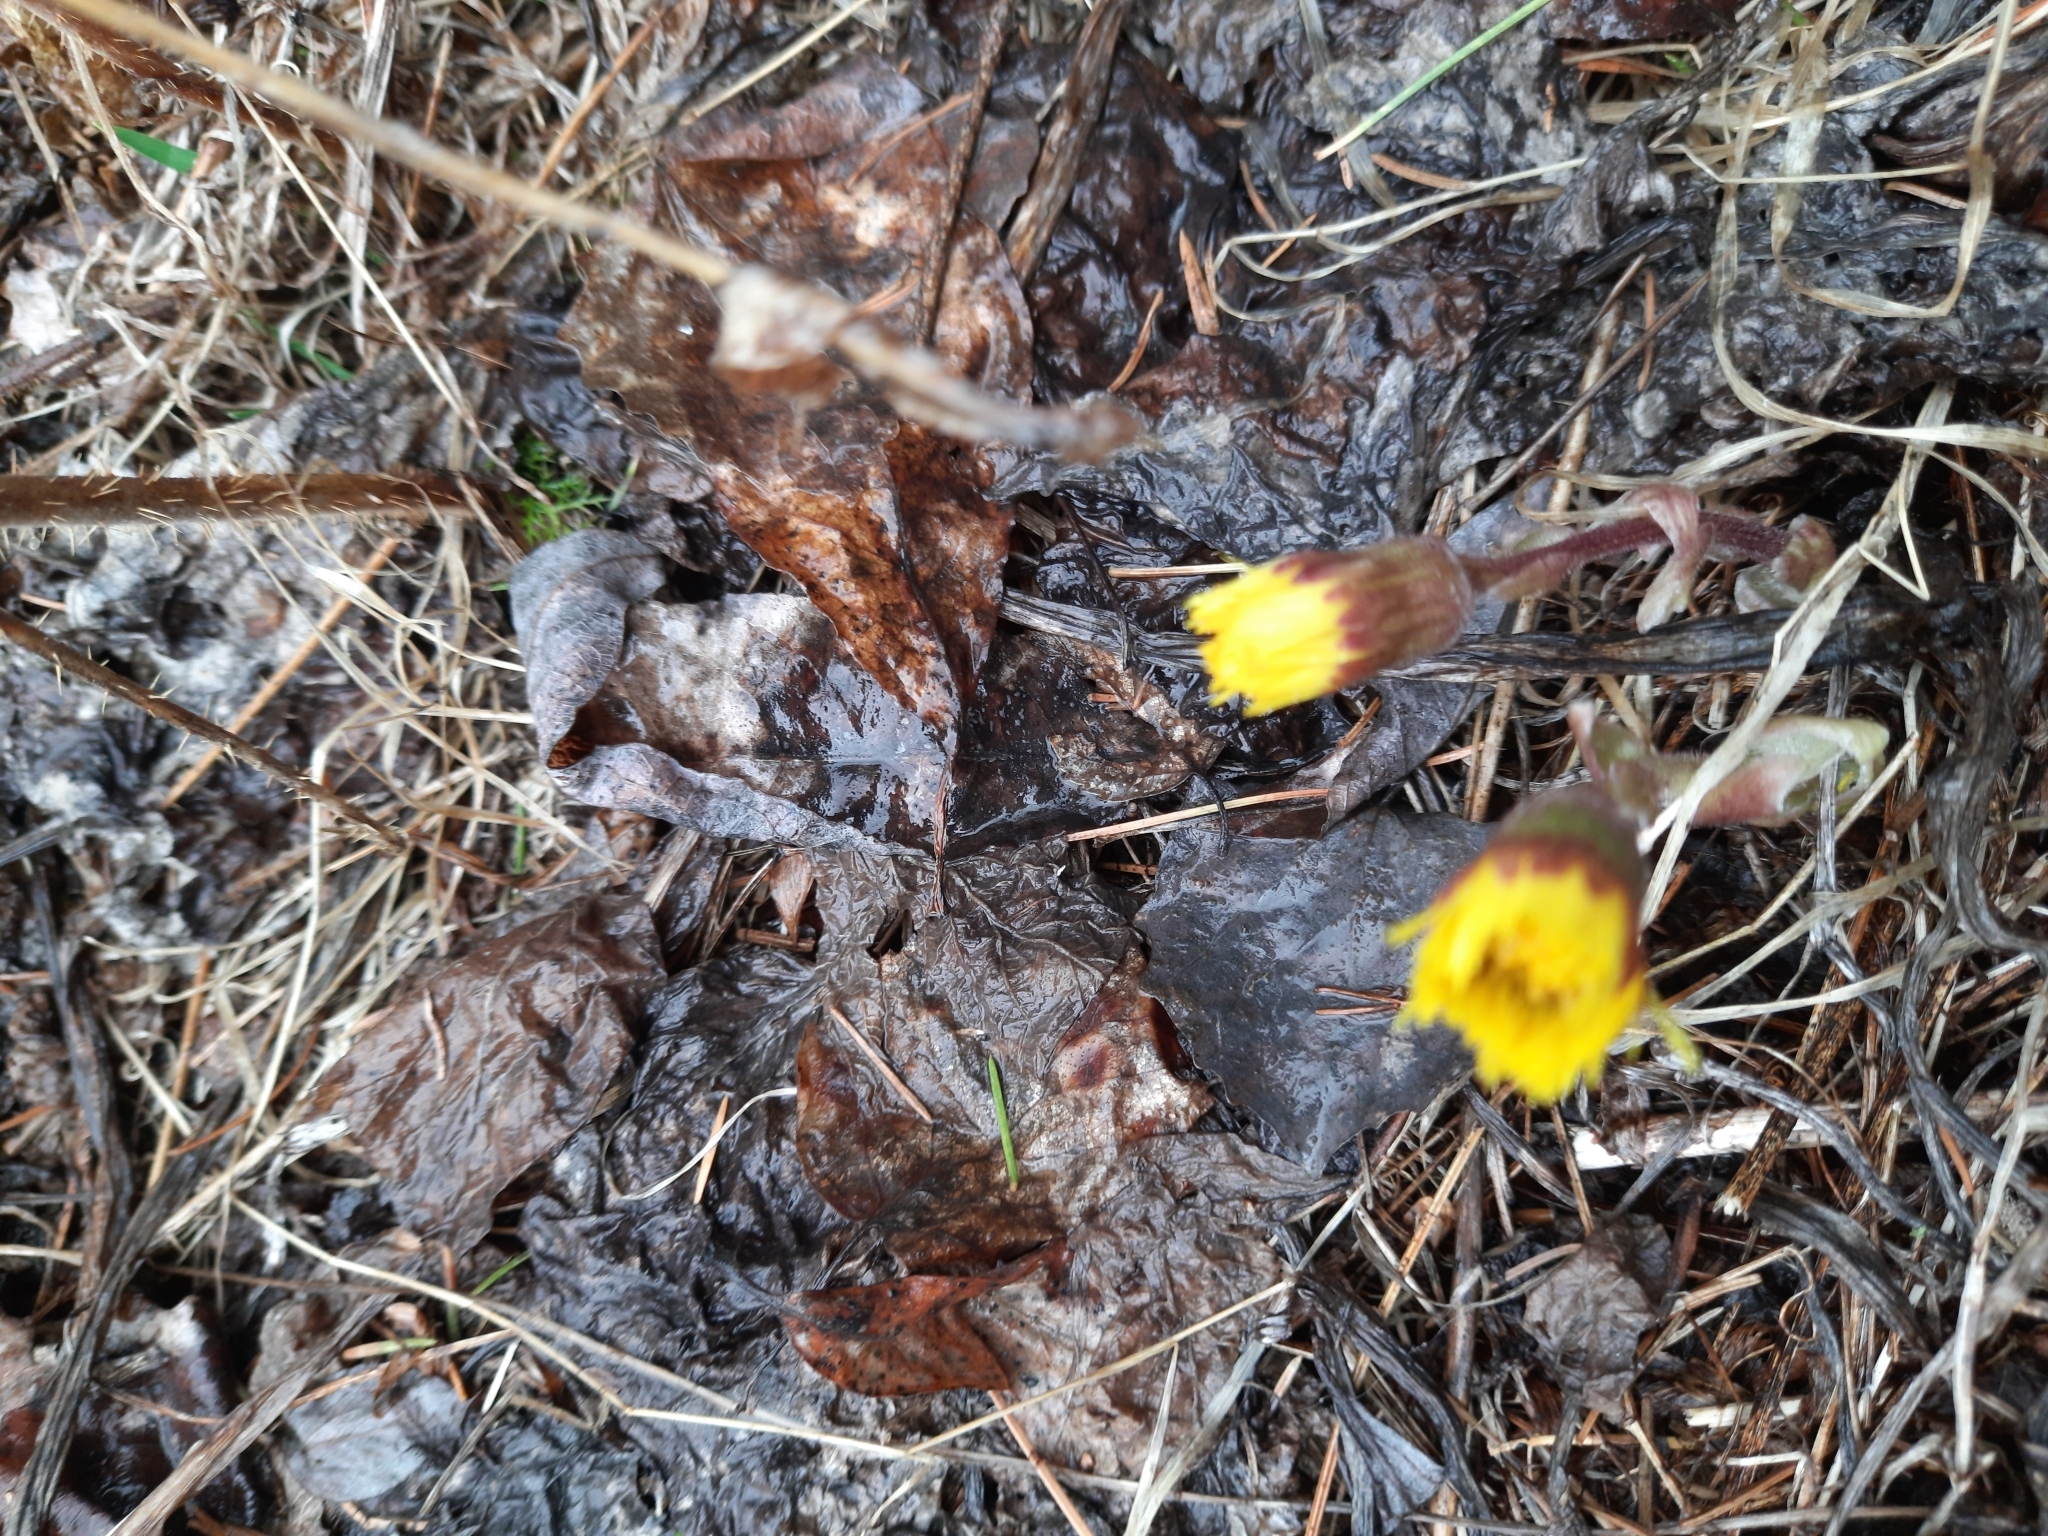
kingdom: Plantae
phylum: Tracheophyta
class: Magnoliopsida
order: Asterales
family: Asteraceae
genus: Tussilago
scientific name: Tussilago farfara
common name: Coltsfoot
